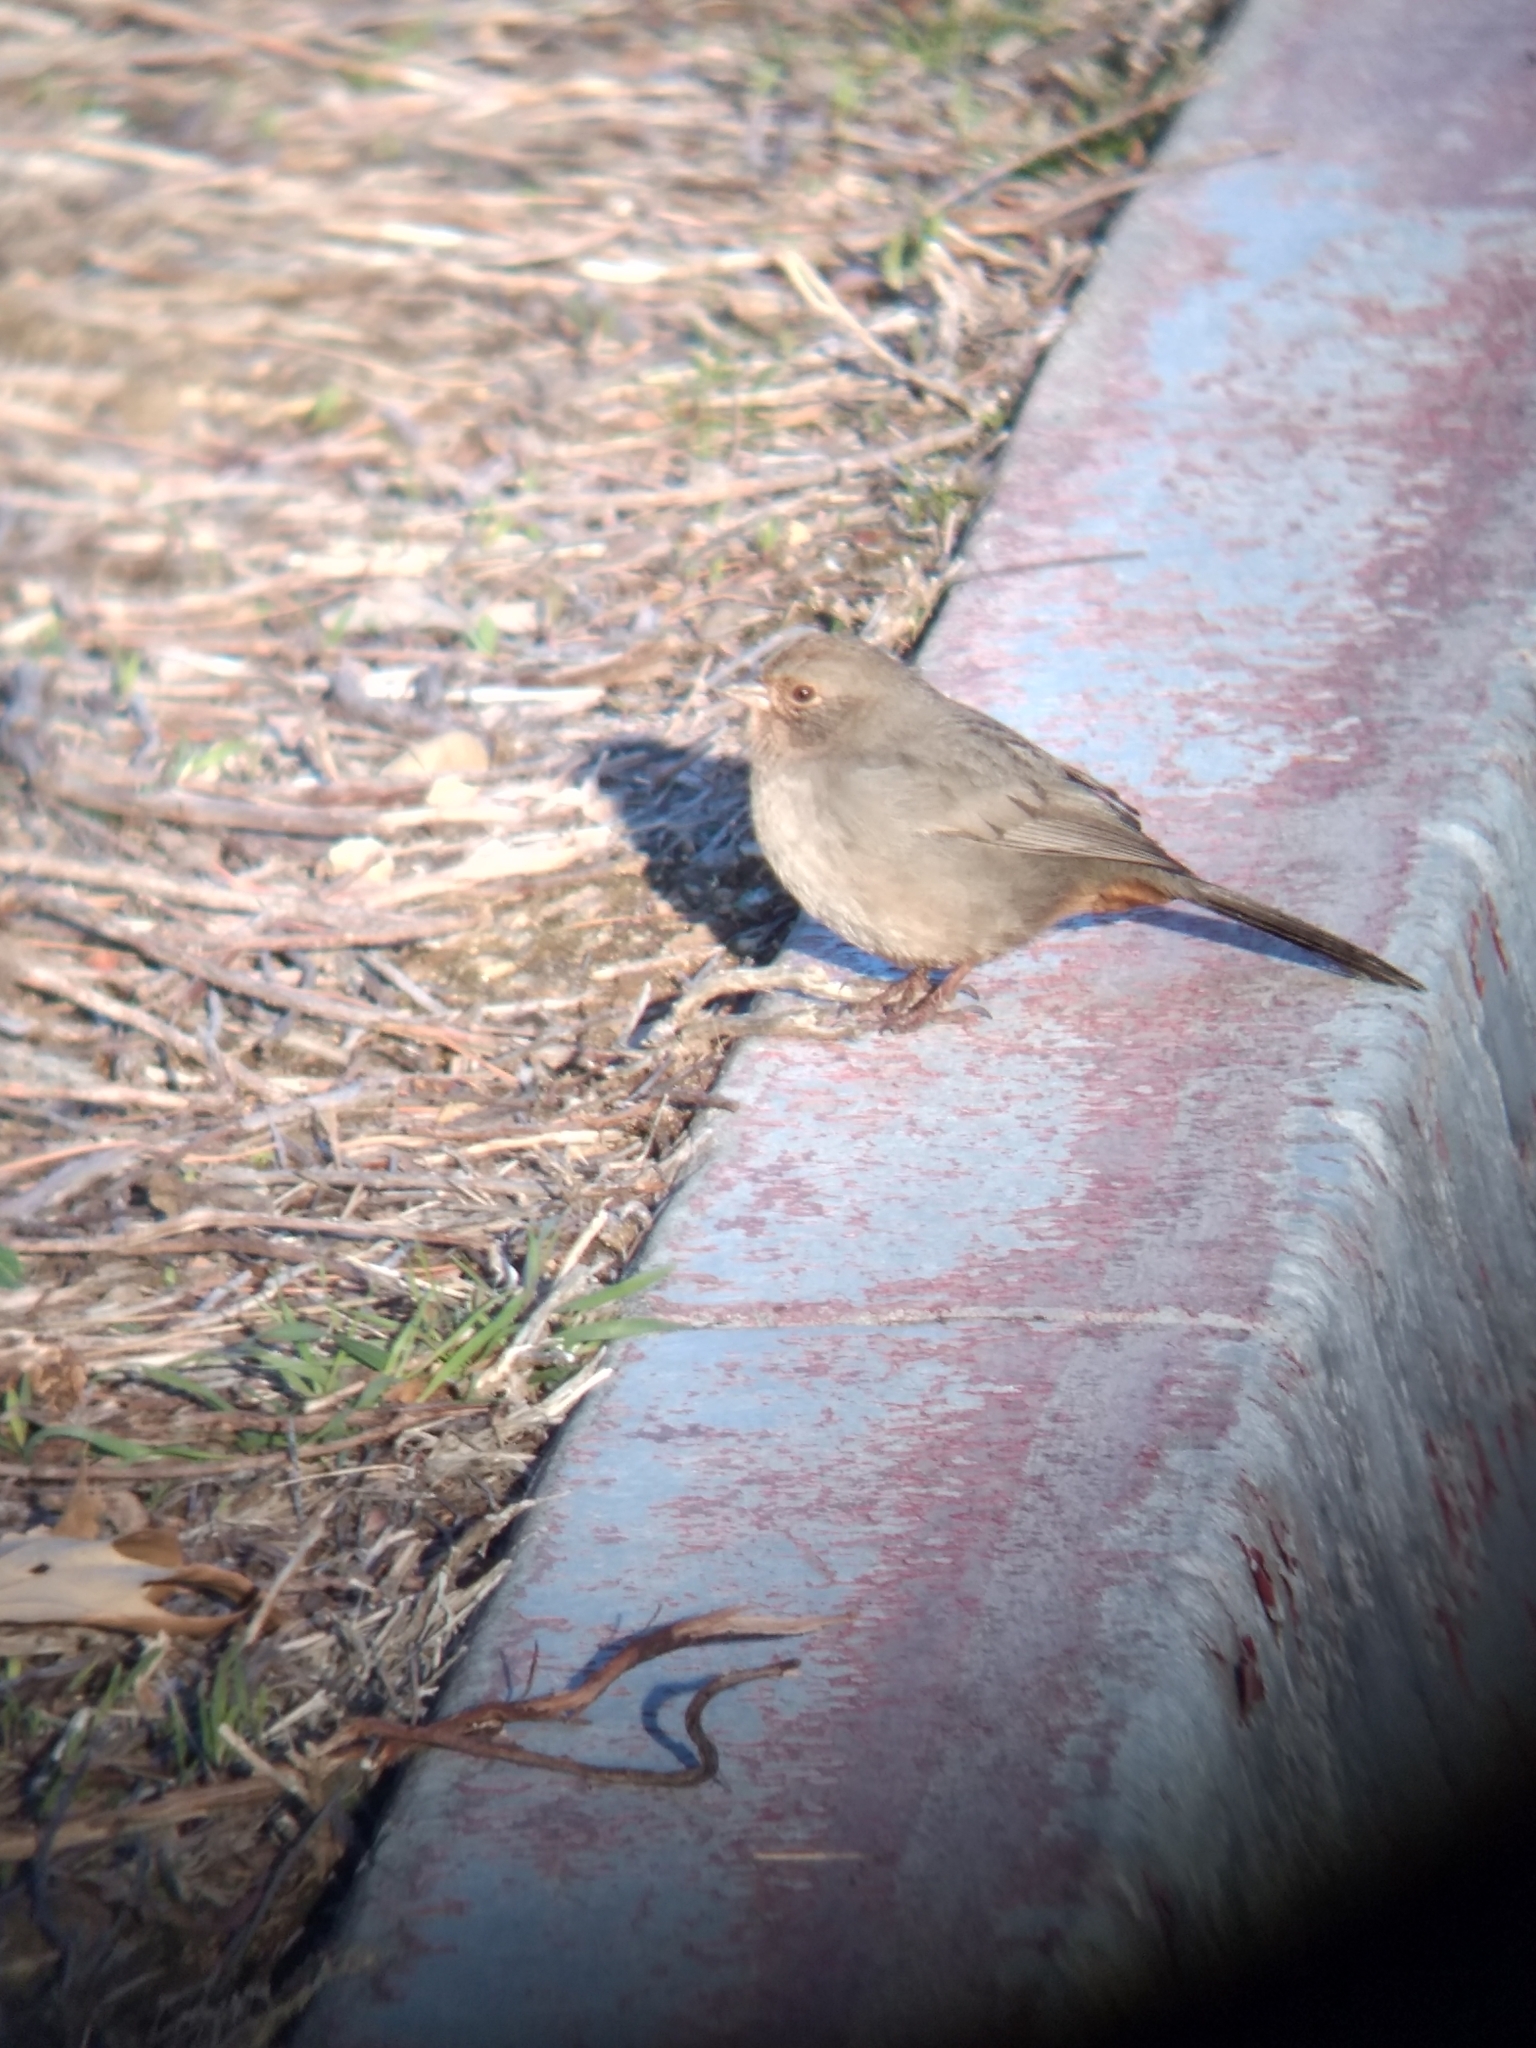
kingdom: Animalia
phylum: Chordata
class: Aves
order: Passeriformes
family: Passerellidae
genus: Melozone
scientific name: Melozone crissalis
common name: California towhee
